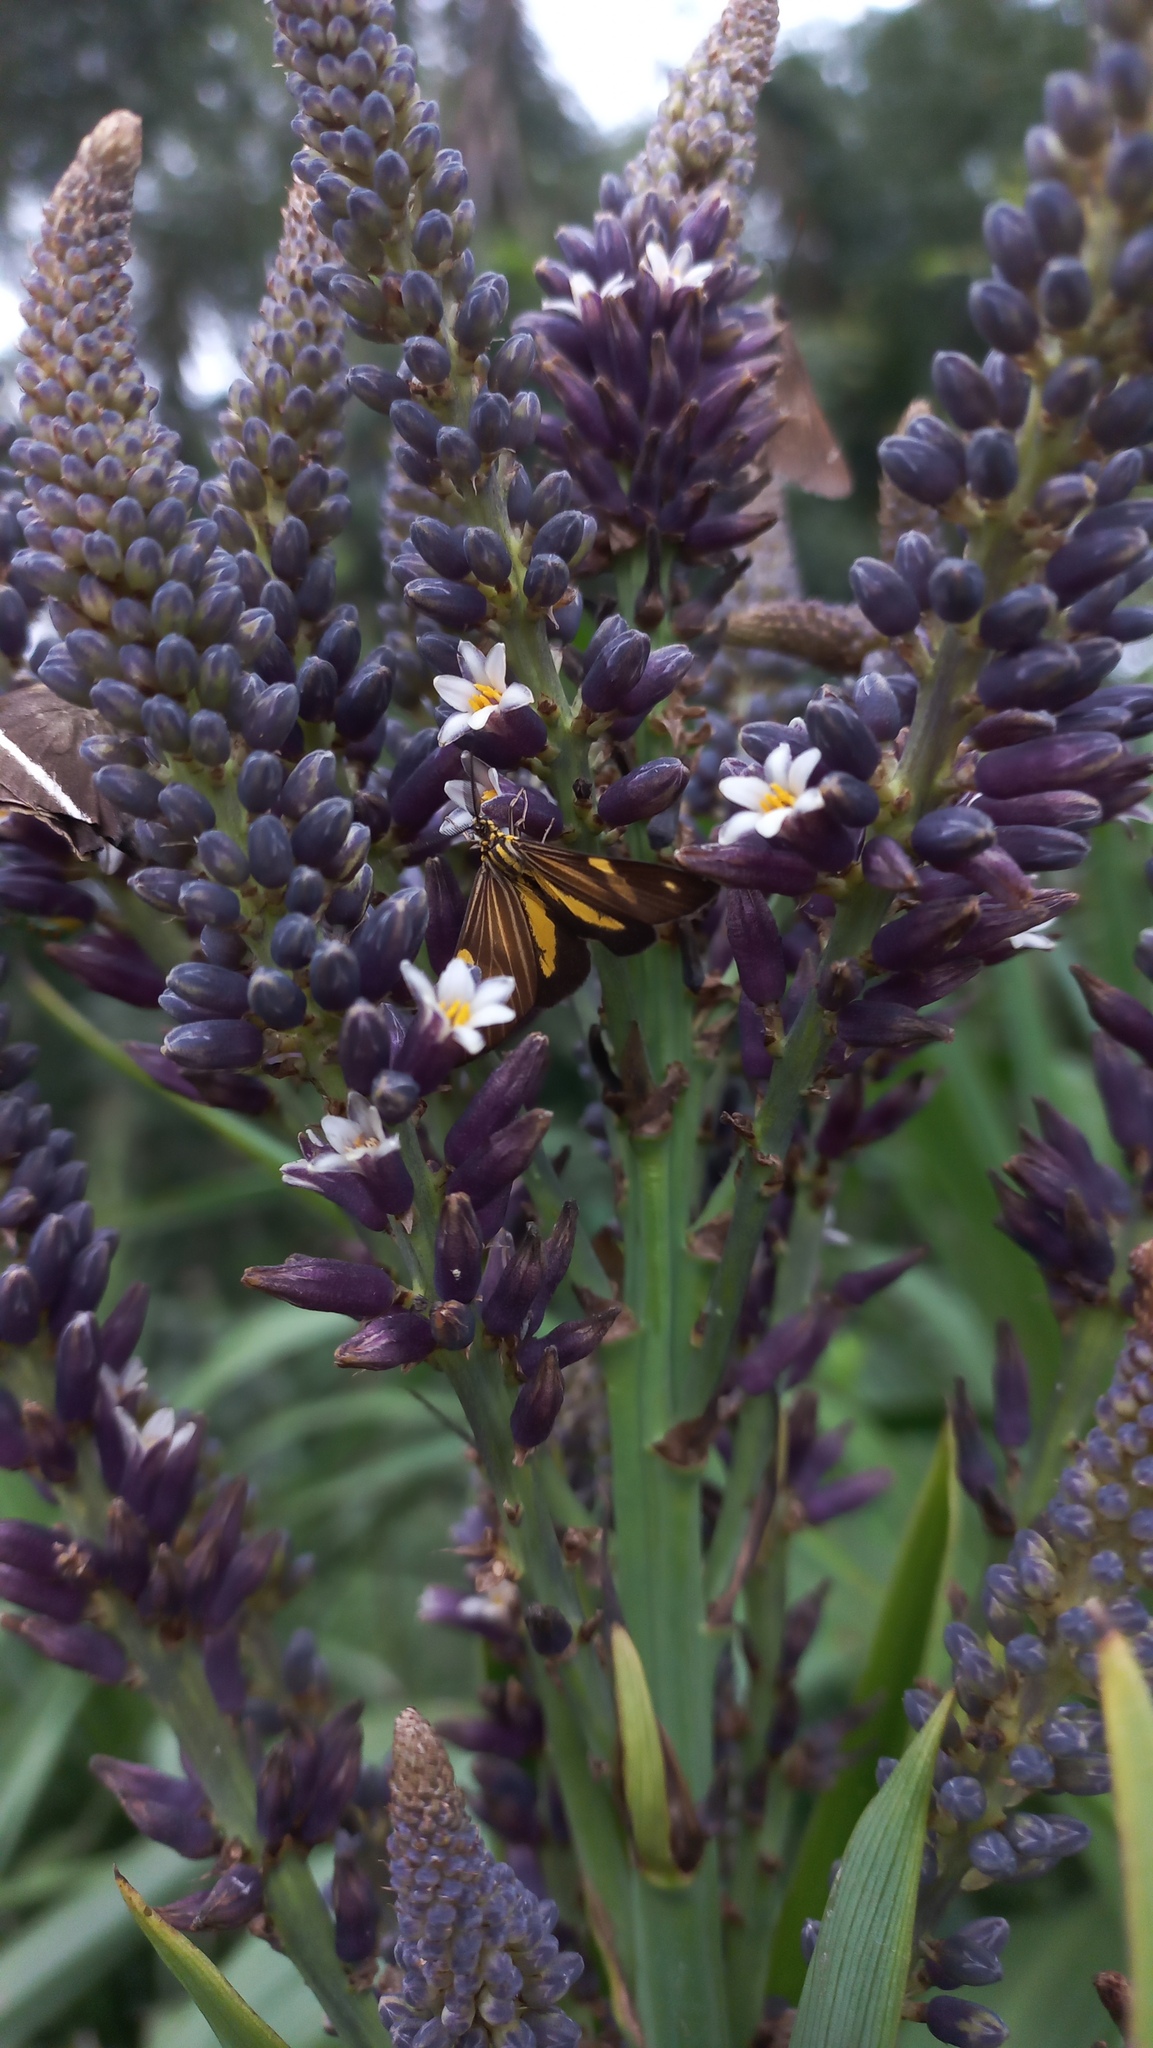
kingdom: Animalia
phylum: Arthropoda
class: Insecta
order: Lepidoptera
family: Notodontidae
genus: Phaeochlaena
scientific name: Phaeochlaena
